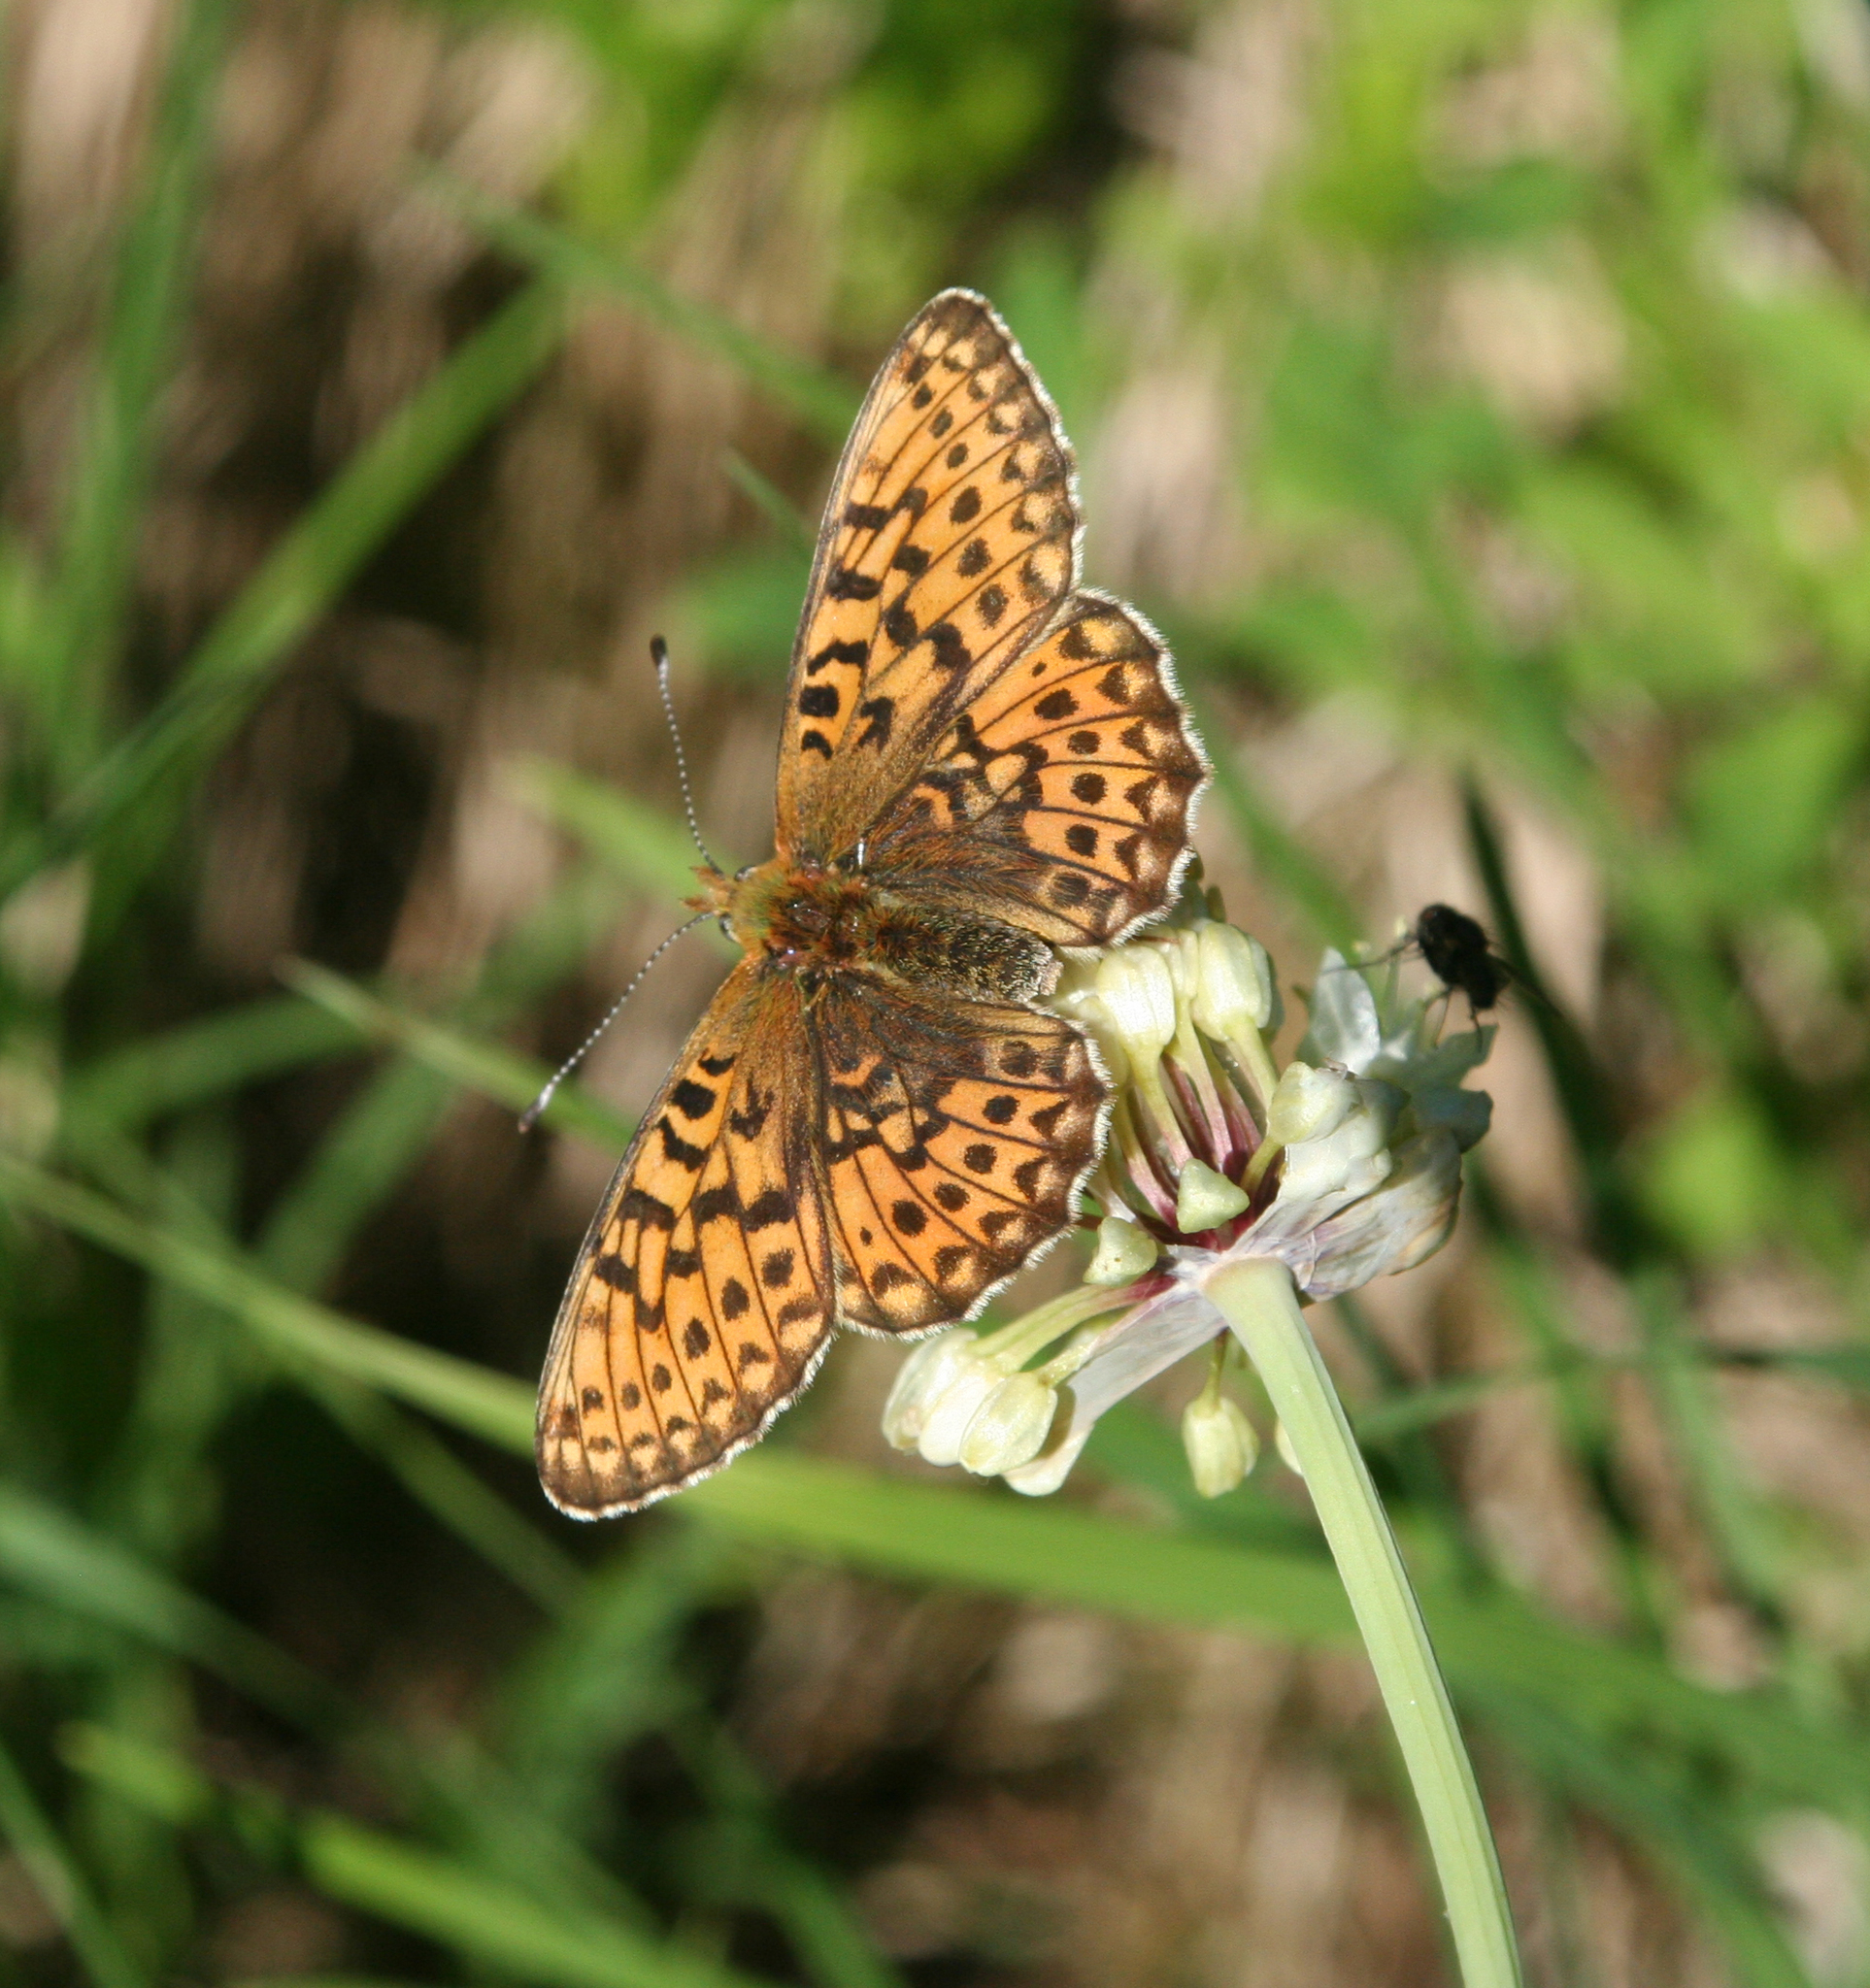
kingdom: Animalia
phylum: Arthropoda
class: Insecta
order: Lepidoptera
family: Nymphalidae
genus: Clossiana
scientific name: Clossiana euphrosyne
